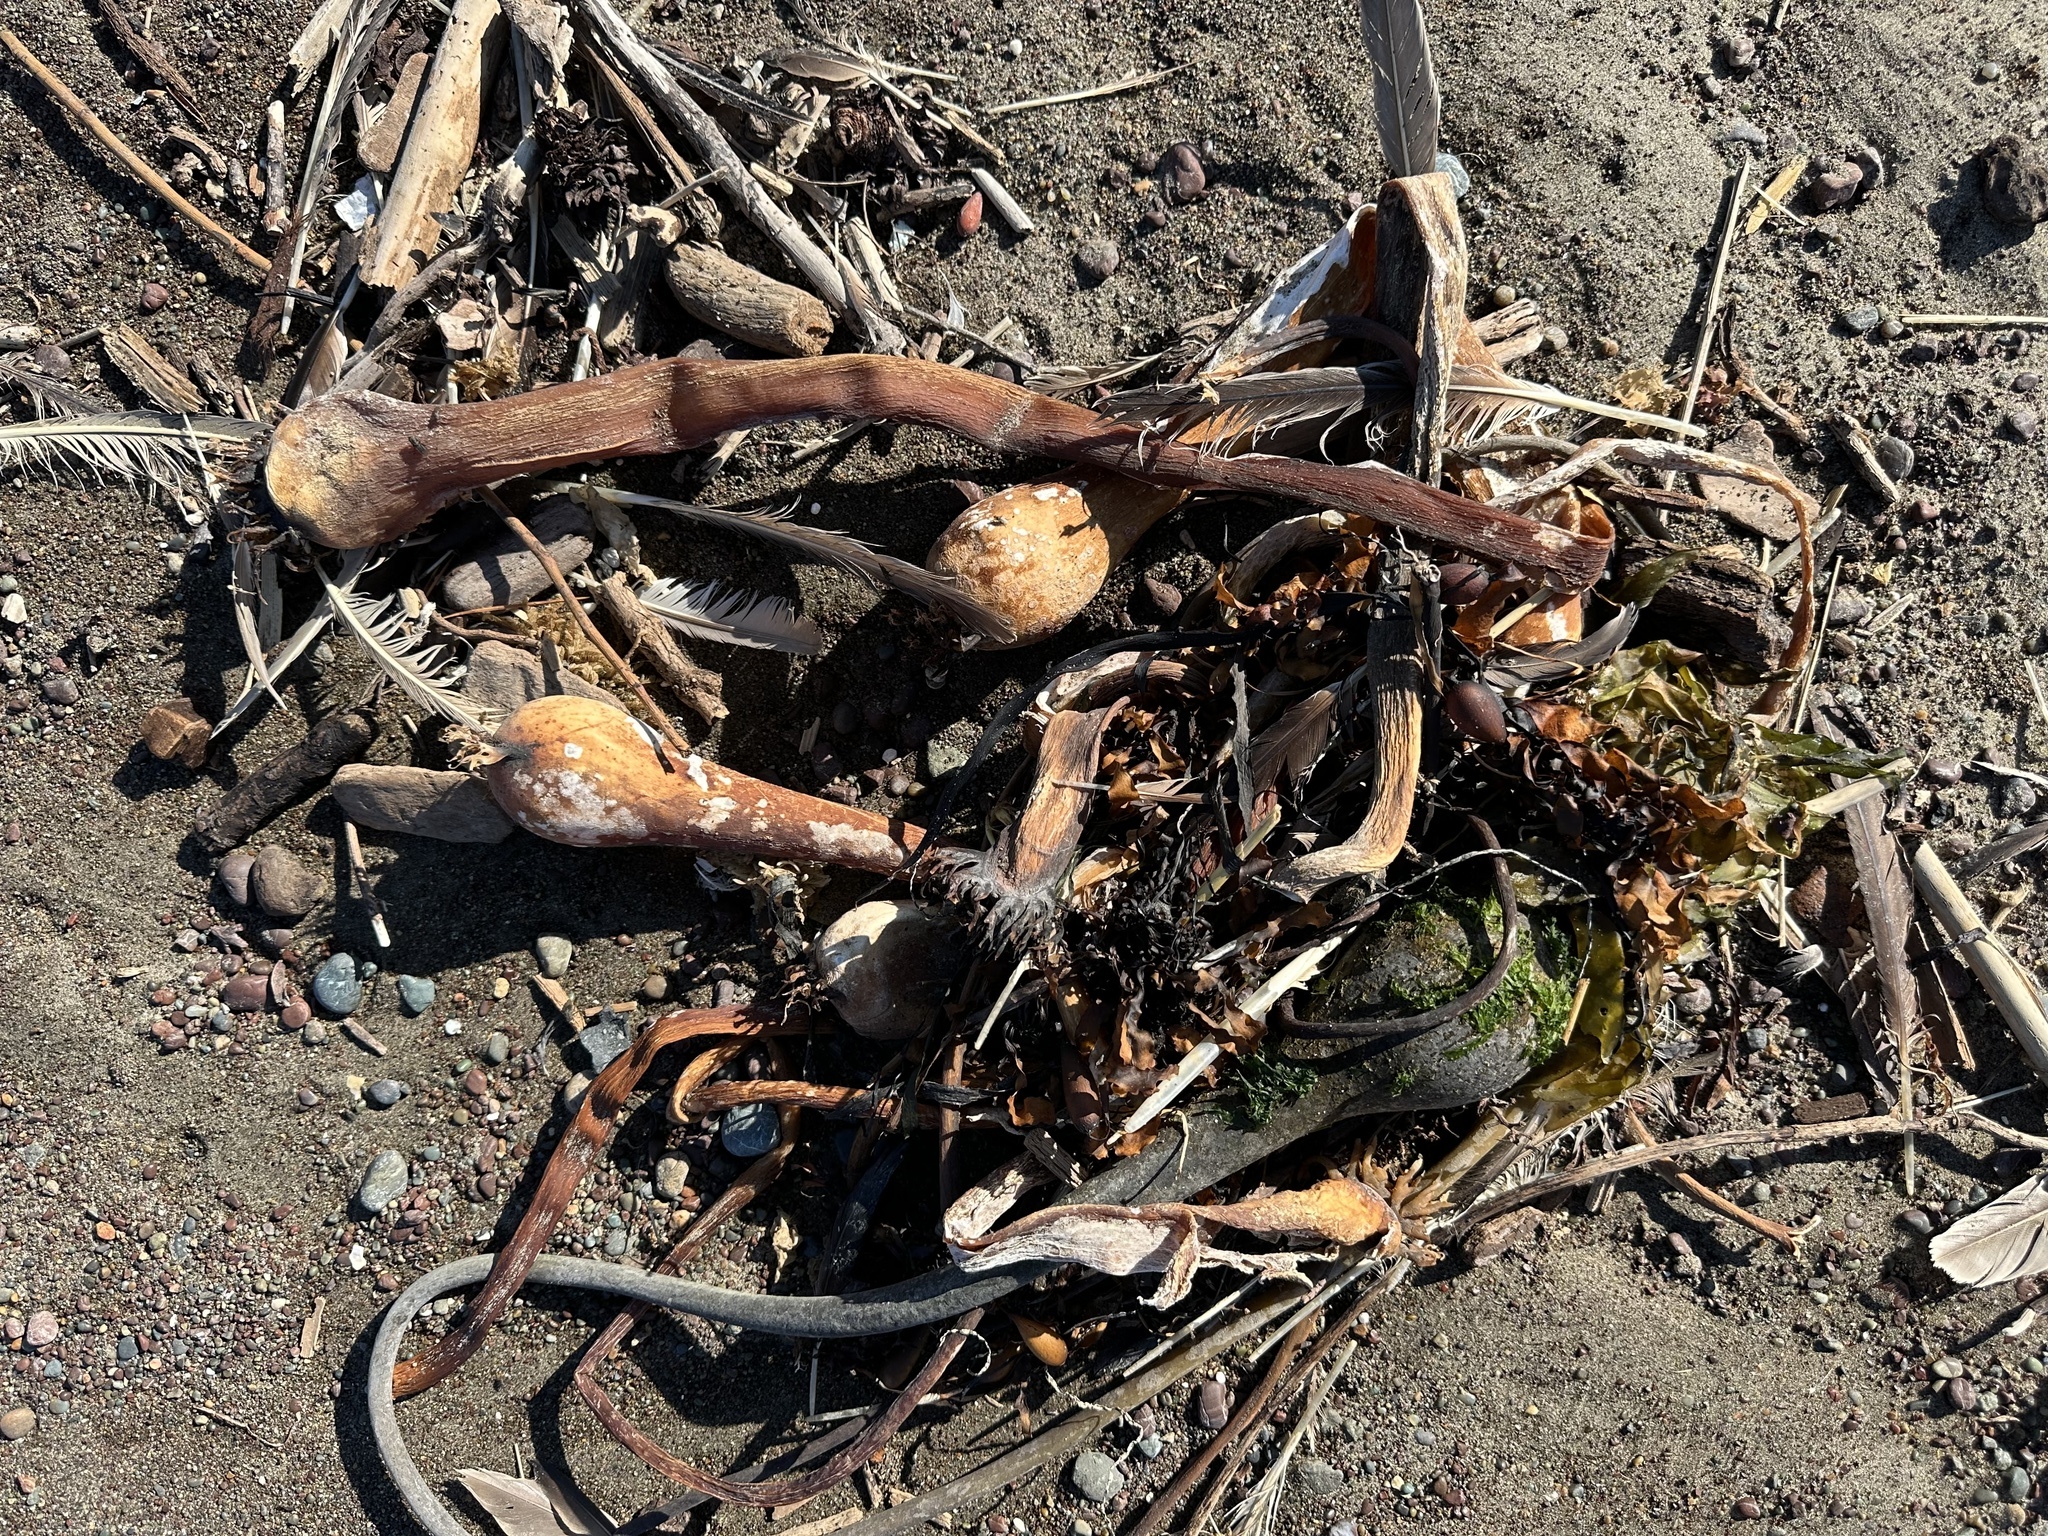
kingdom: Chromista
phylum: Ochrophyta
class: Phaeophyceae
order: Laminariales
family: Laminariaceae
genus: Nereocystis
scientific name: Nereocystis luetkeana
